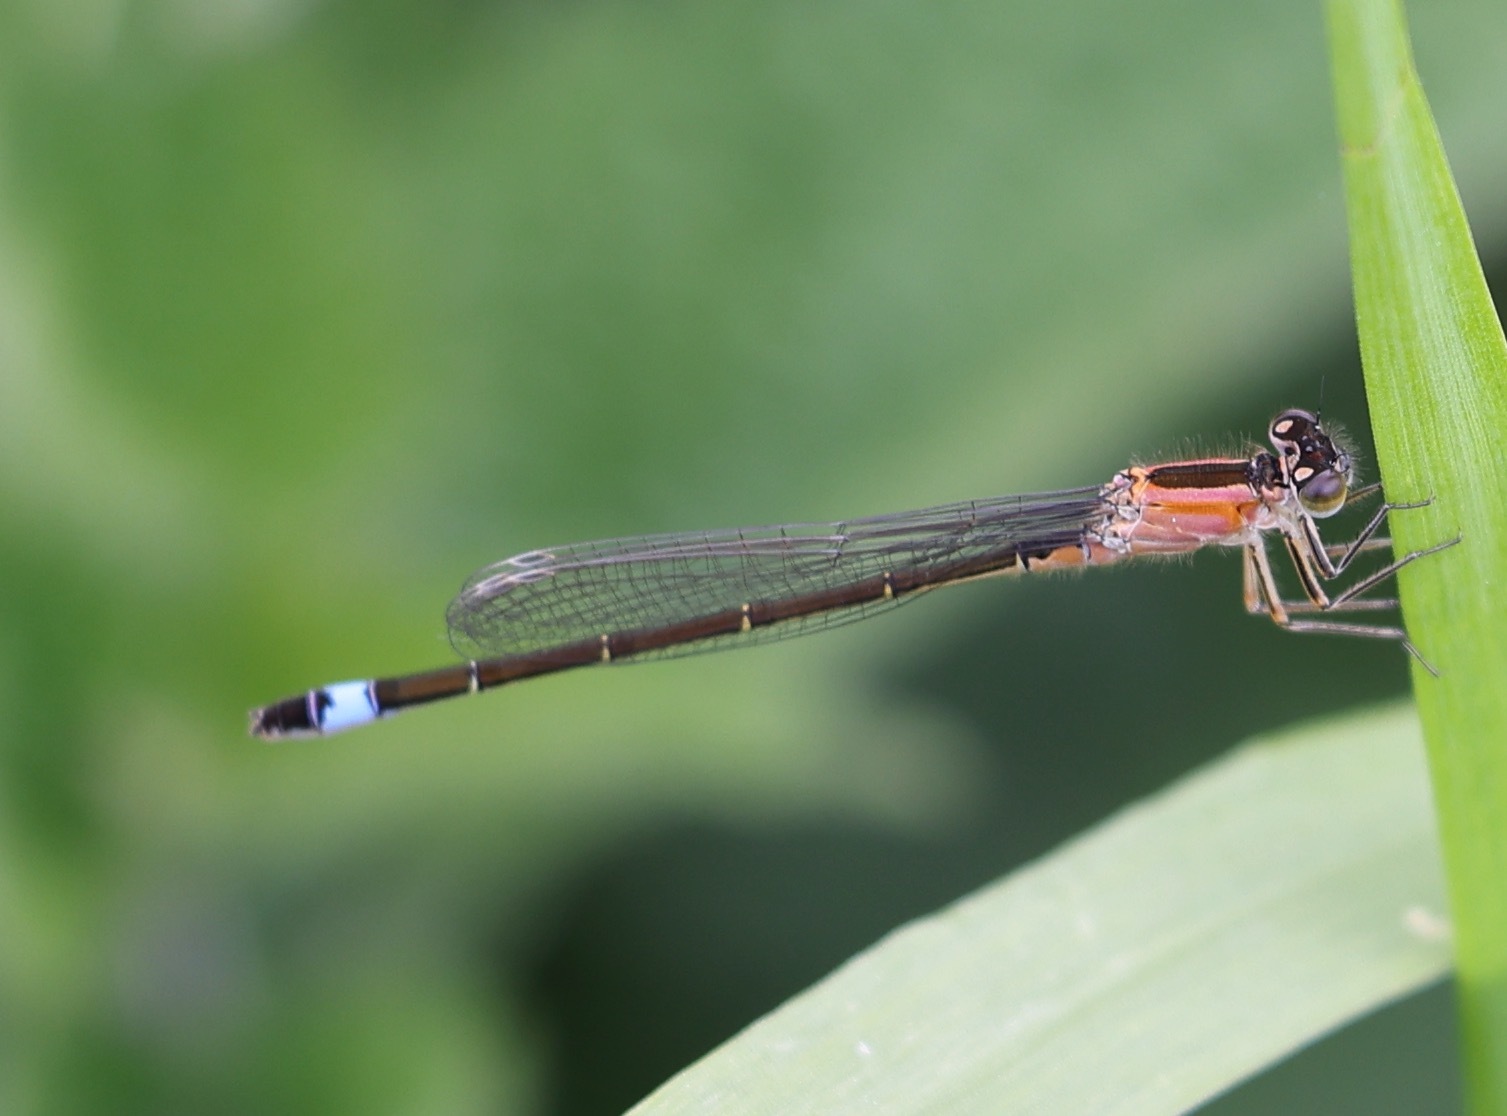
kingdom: Animalia
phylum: Arthropoda
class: Insecta
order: Odonata
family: Coenagrionidae
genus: Ischnura
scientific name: Ischnura elegans
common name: Blue-tailed damselfly
